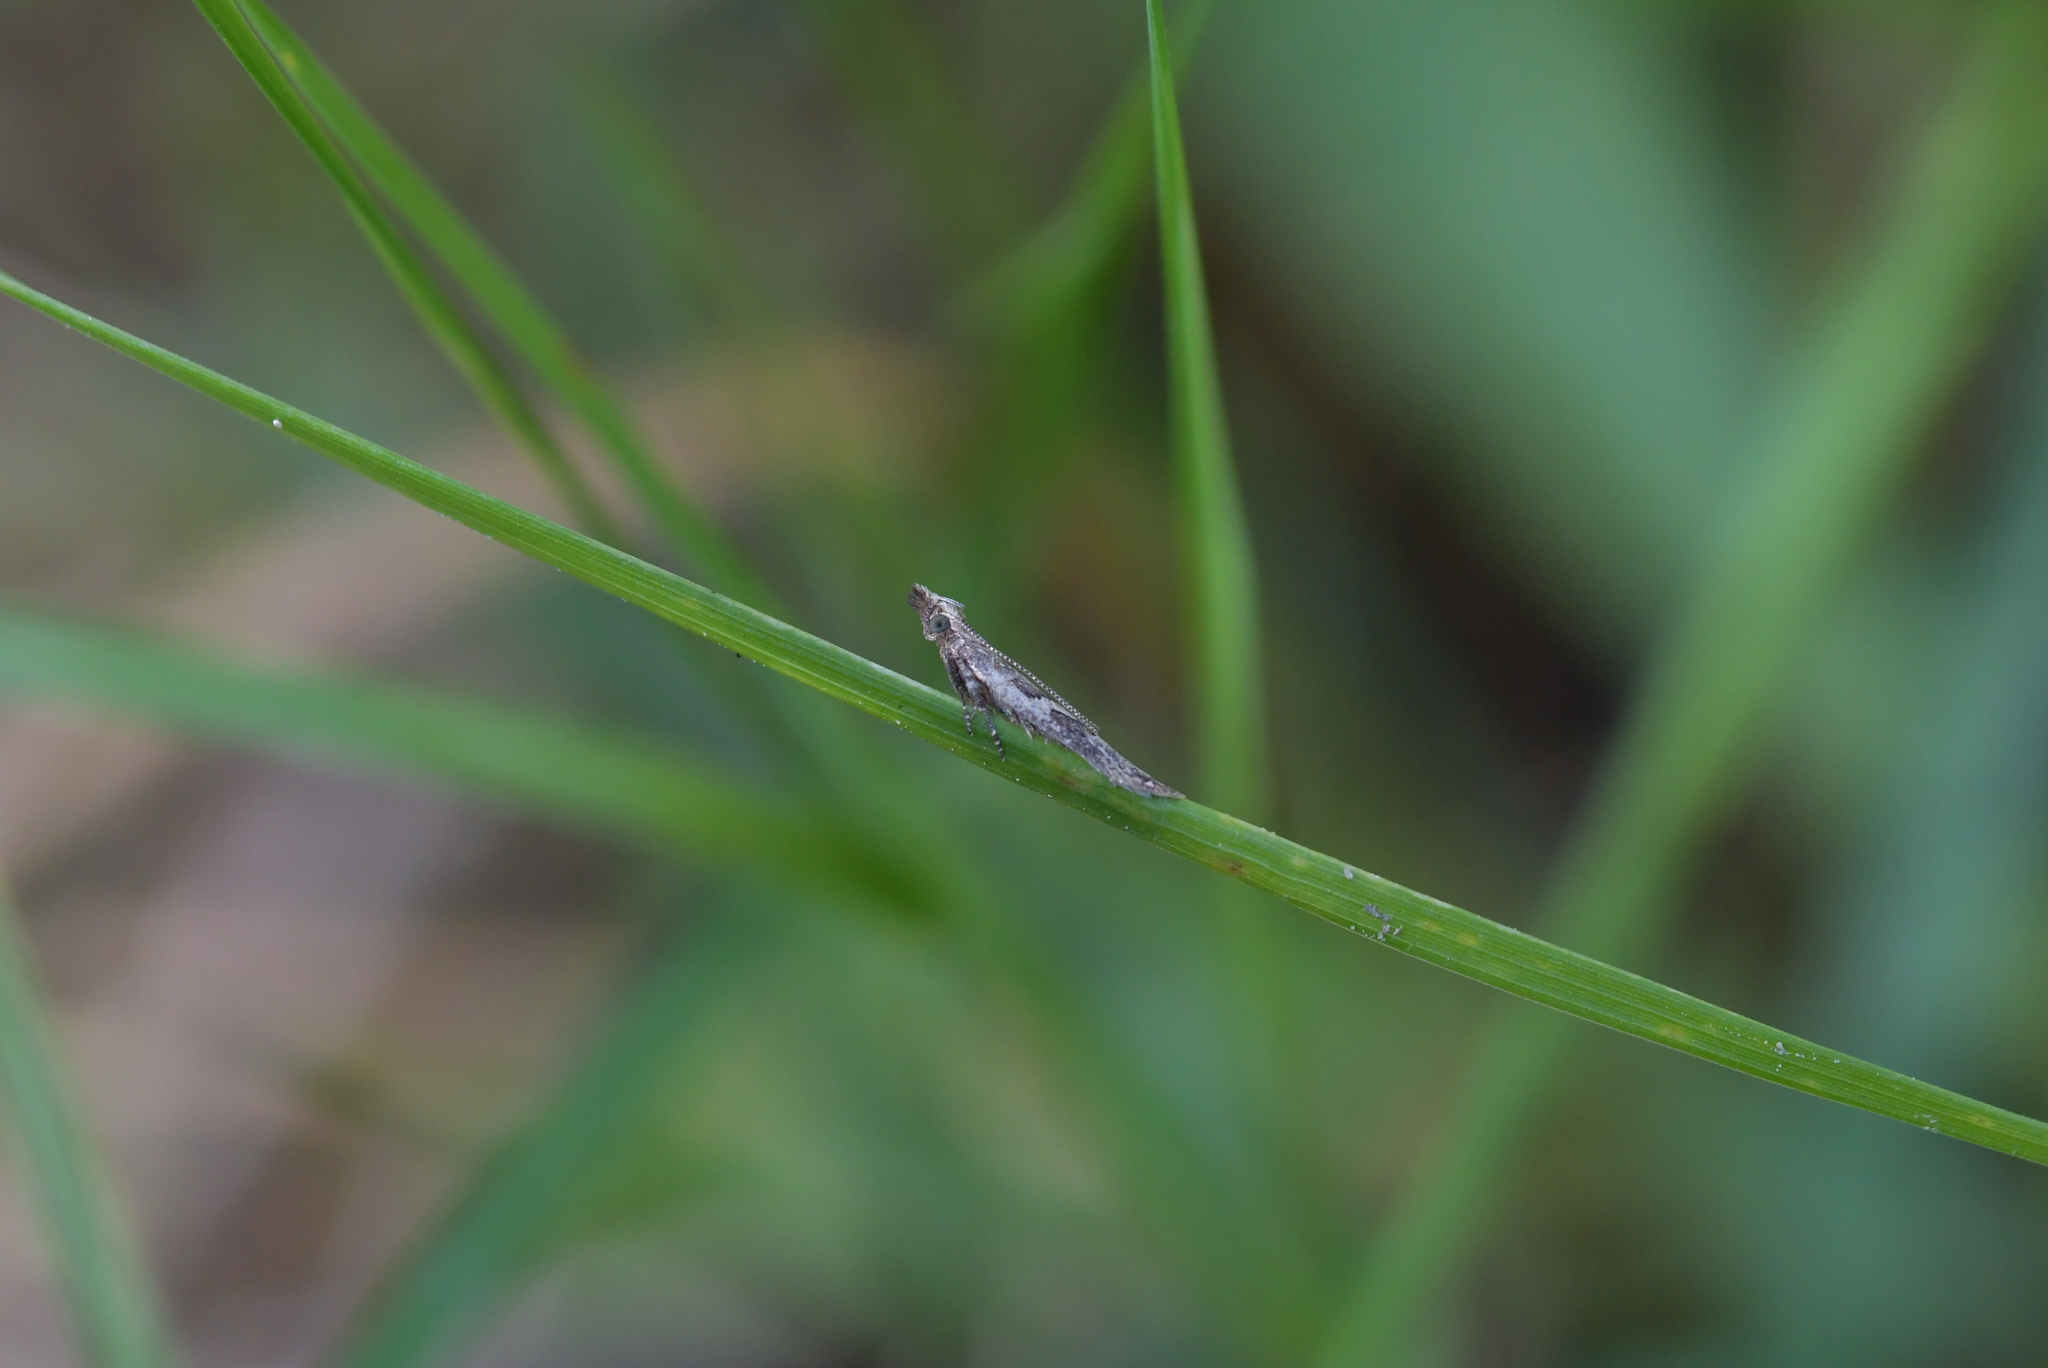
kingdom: Animalia
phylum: Arthropoda
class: Insecta
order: Lepidoptera
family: Oecophoridae
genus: Thamnosara
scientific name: Thamnosara sublitella
